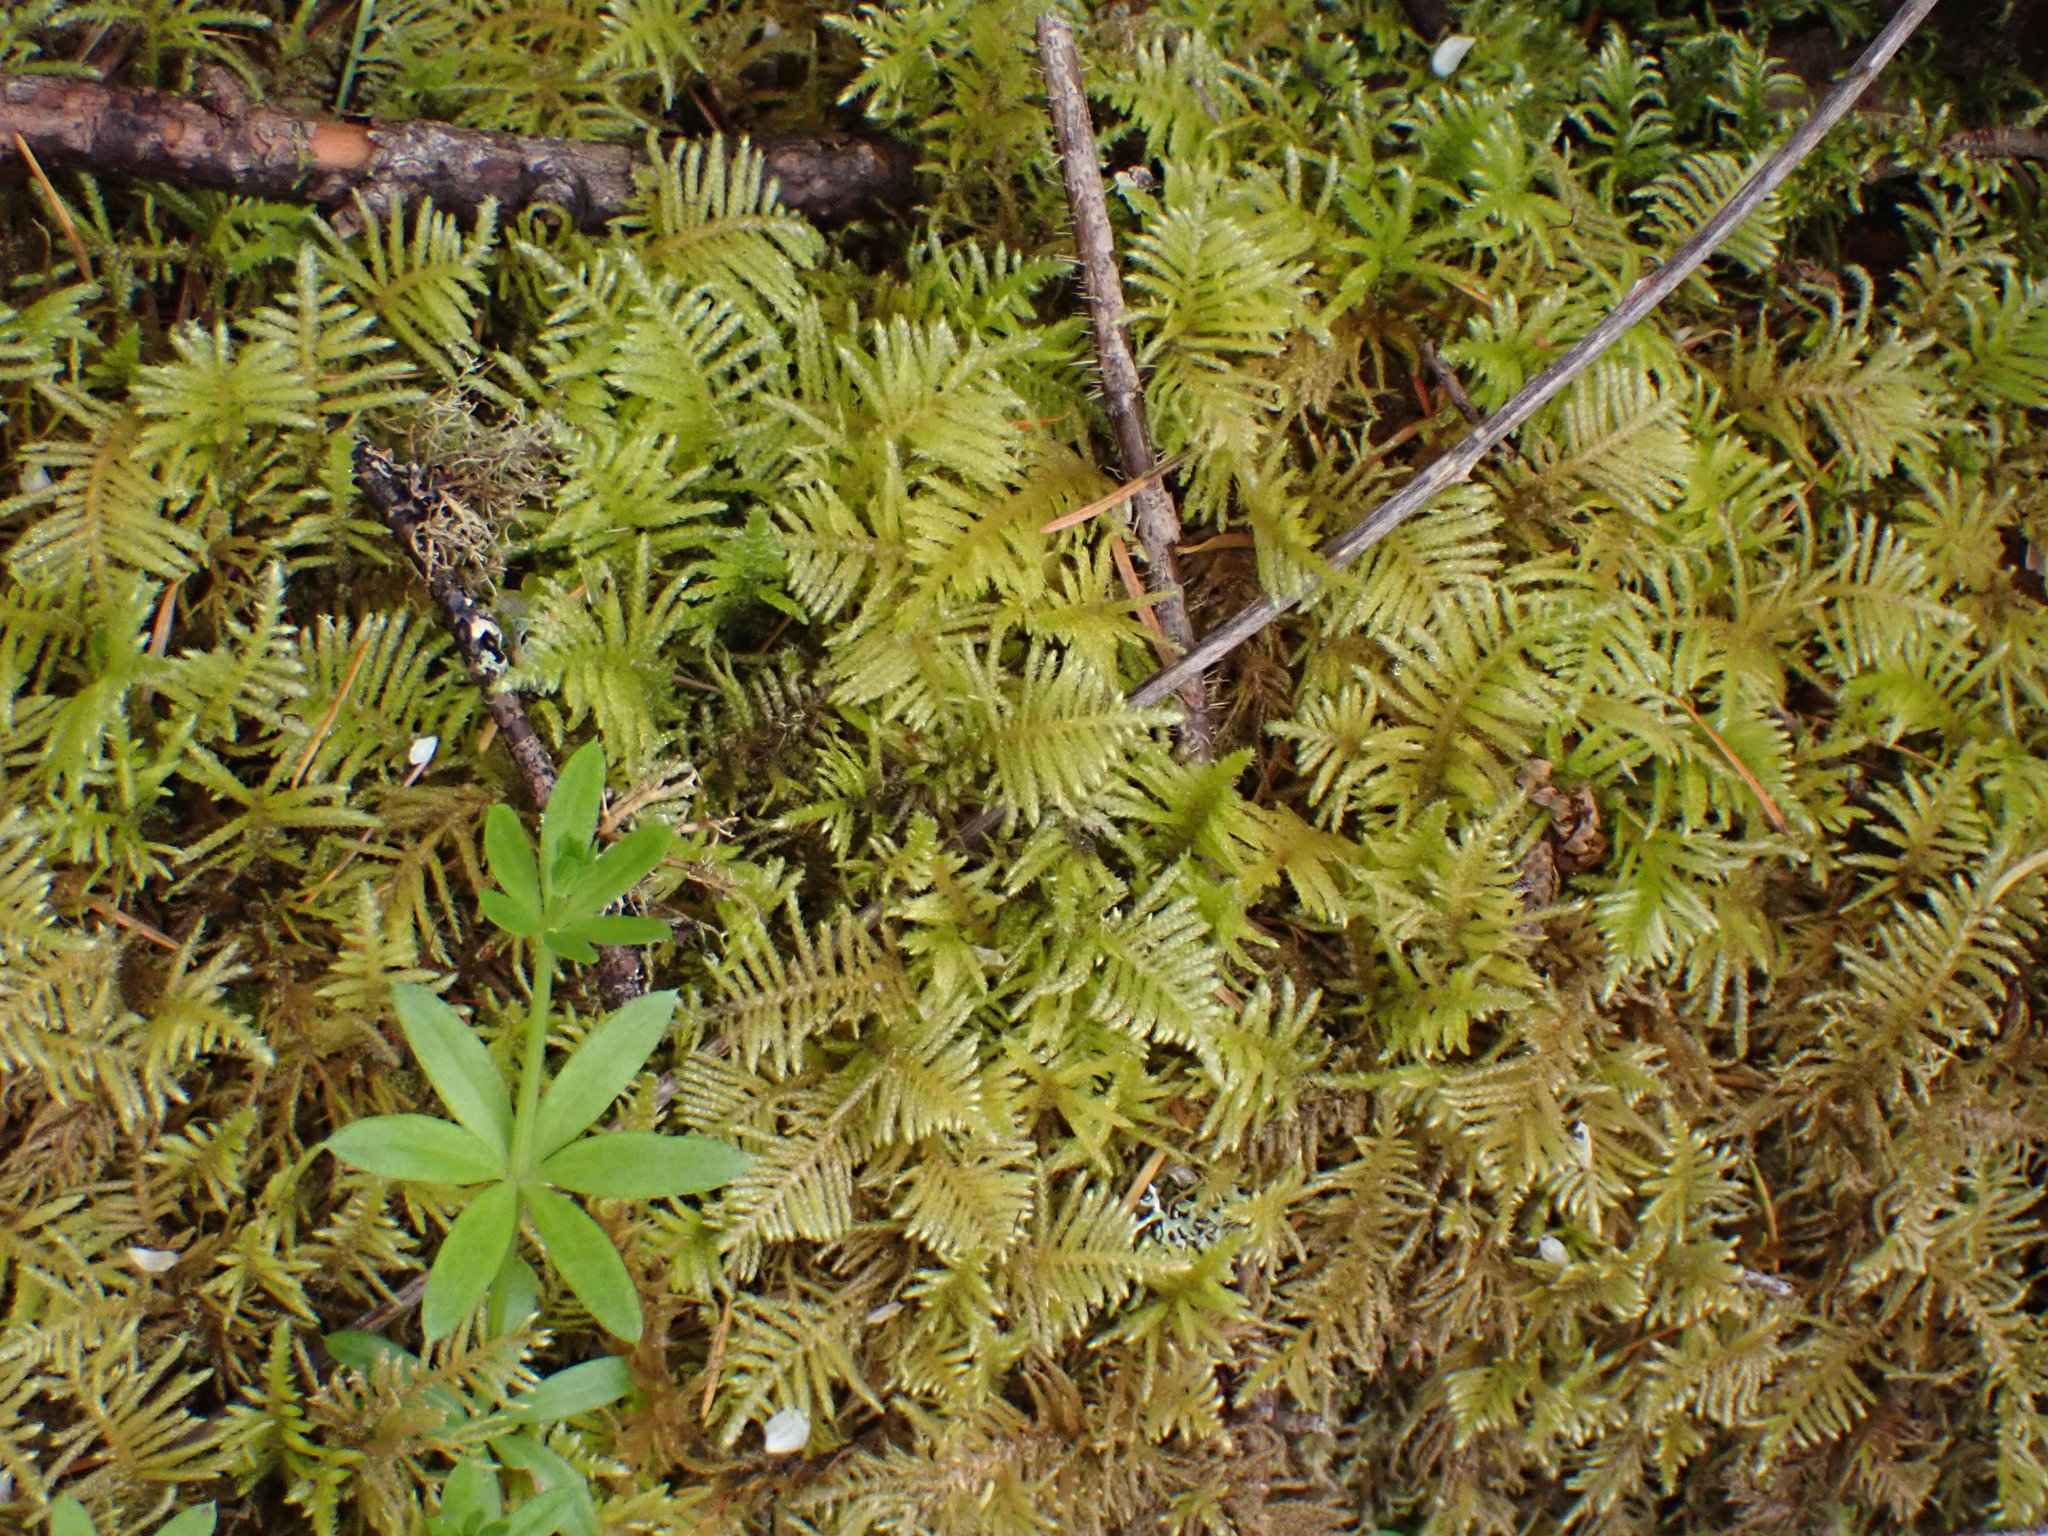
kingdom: Plantae
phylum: Bryophyta
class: Bryopsida
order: Hypnales
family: Brachytheciaceae
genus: Kindbergia
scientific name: Kindbergia oregana
